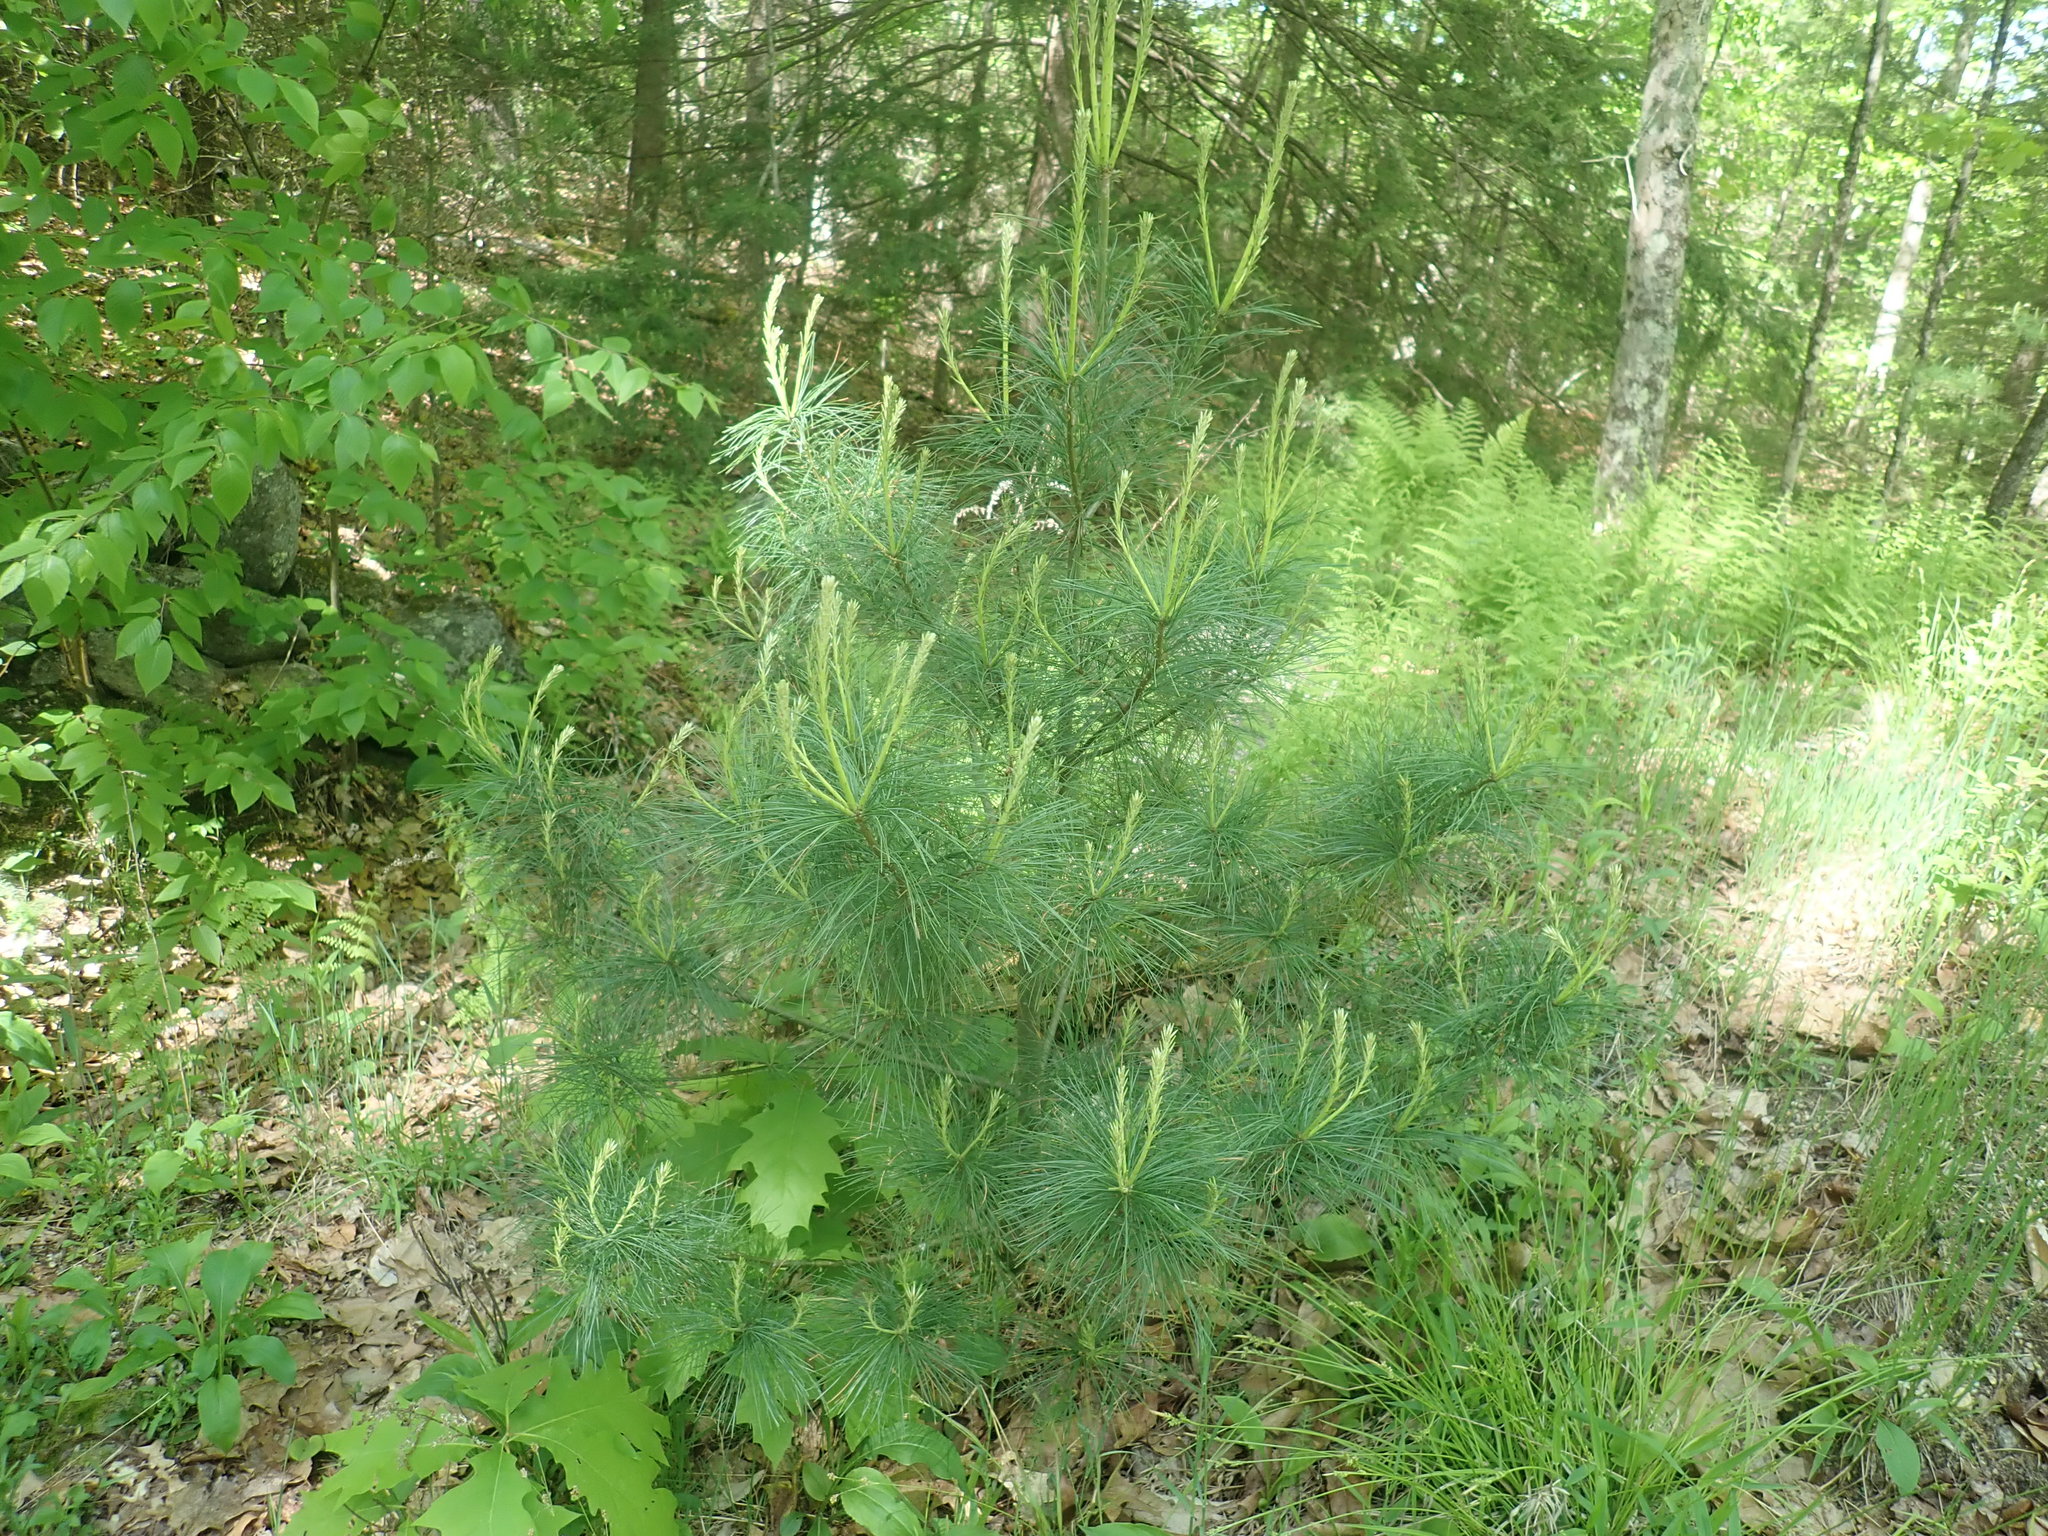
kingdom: Plantae
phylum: Tracheophyta
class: Pinopsida
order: Pinales
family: Pinaceae
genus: Pinus
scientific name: Pinus strobus
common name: Weymouth pine
